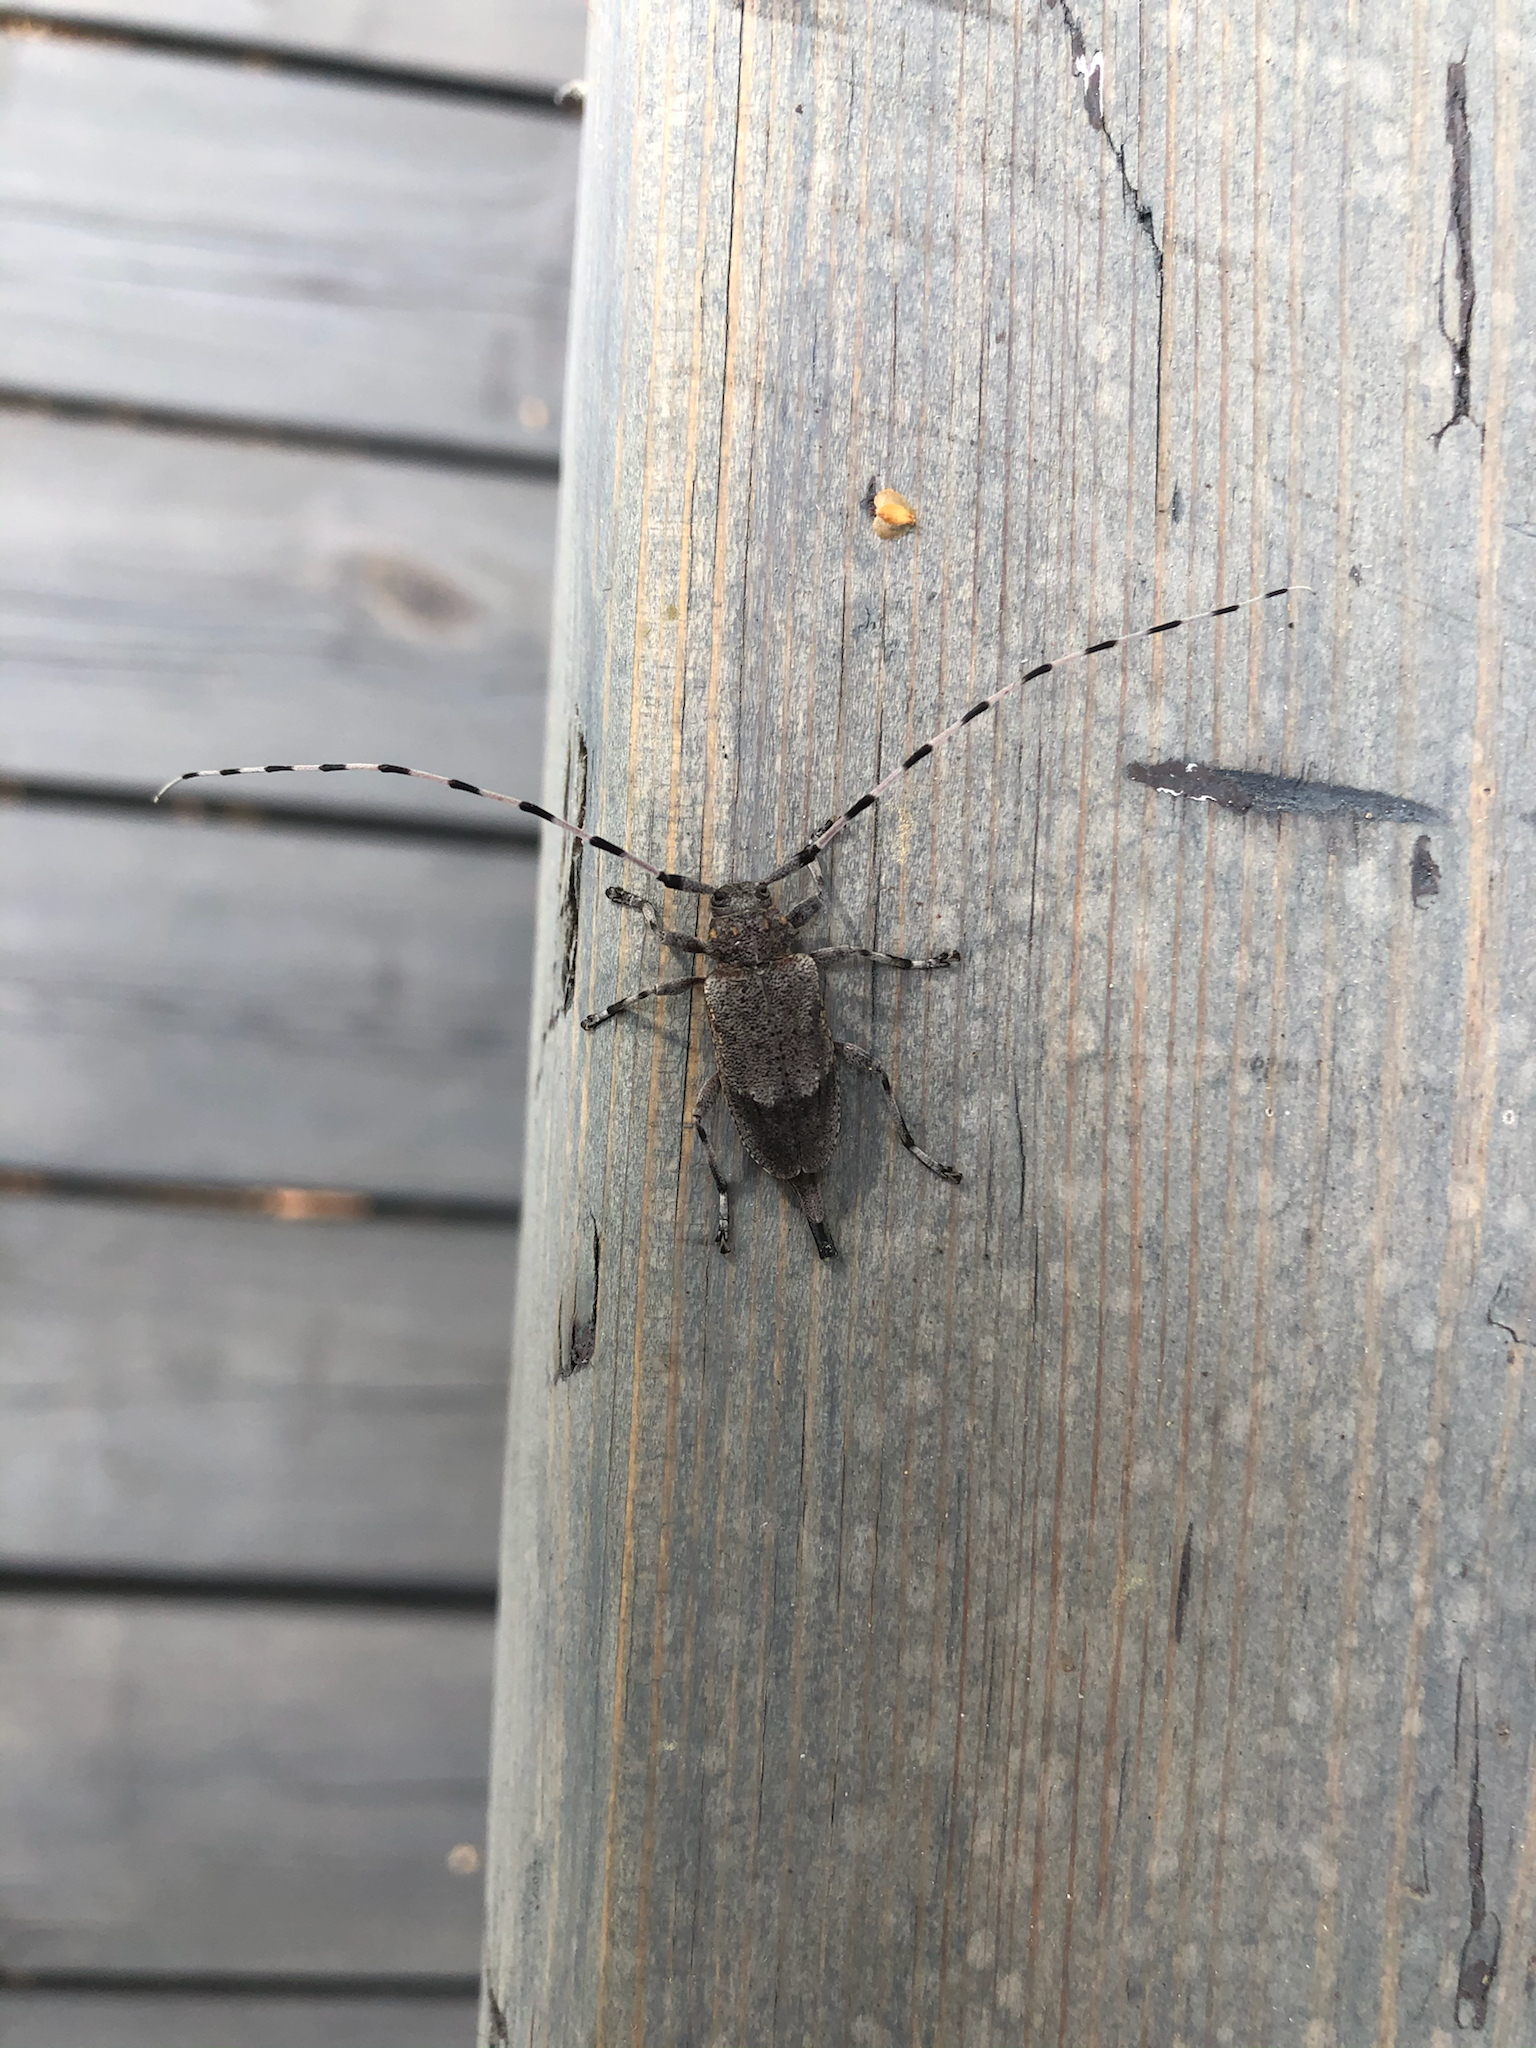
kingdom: Animalia
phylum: Arthropoda
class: Insecta
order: Coleoptera
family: Cerambycidae
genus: Acanthocinus
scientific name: Acanthocinus aedilis
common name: Timberman beetle
